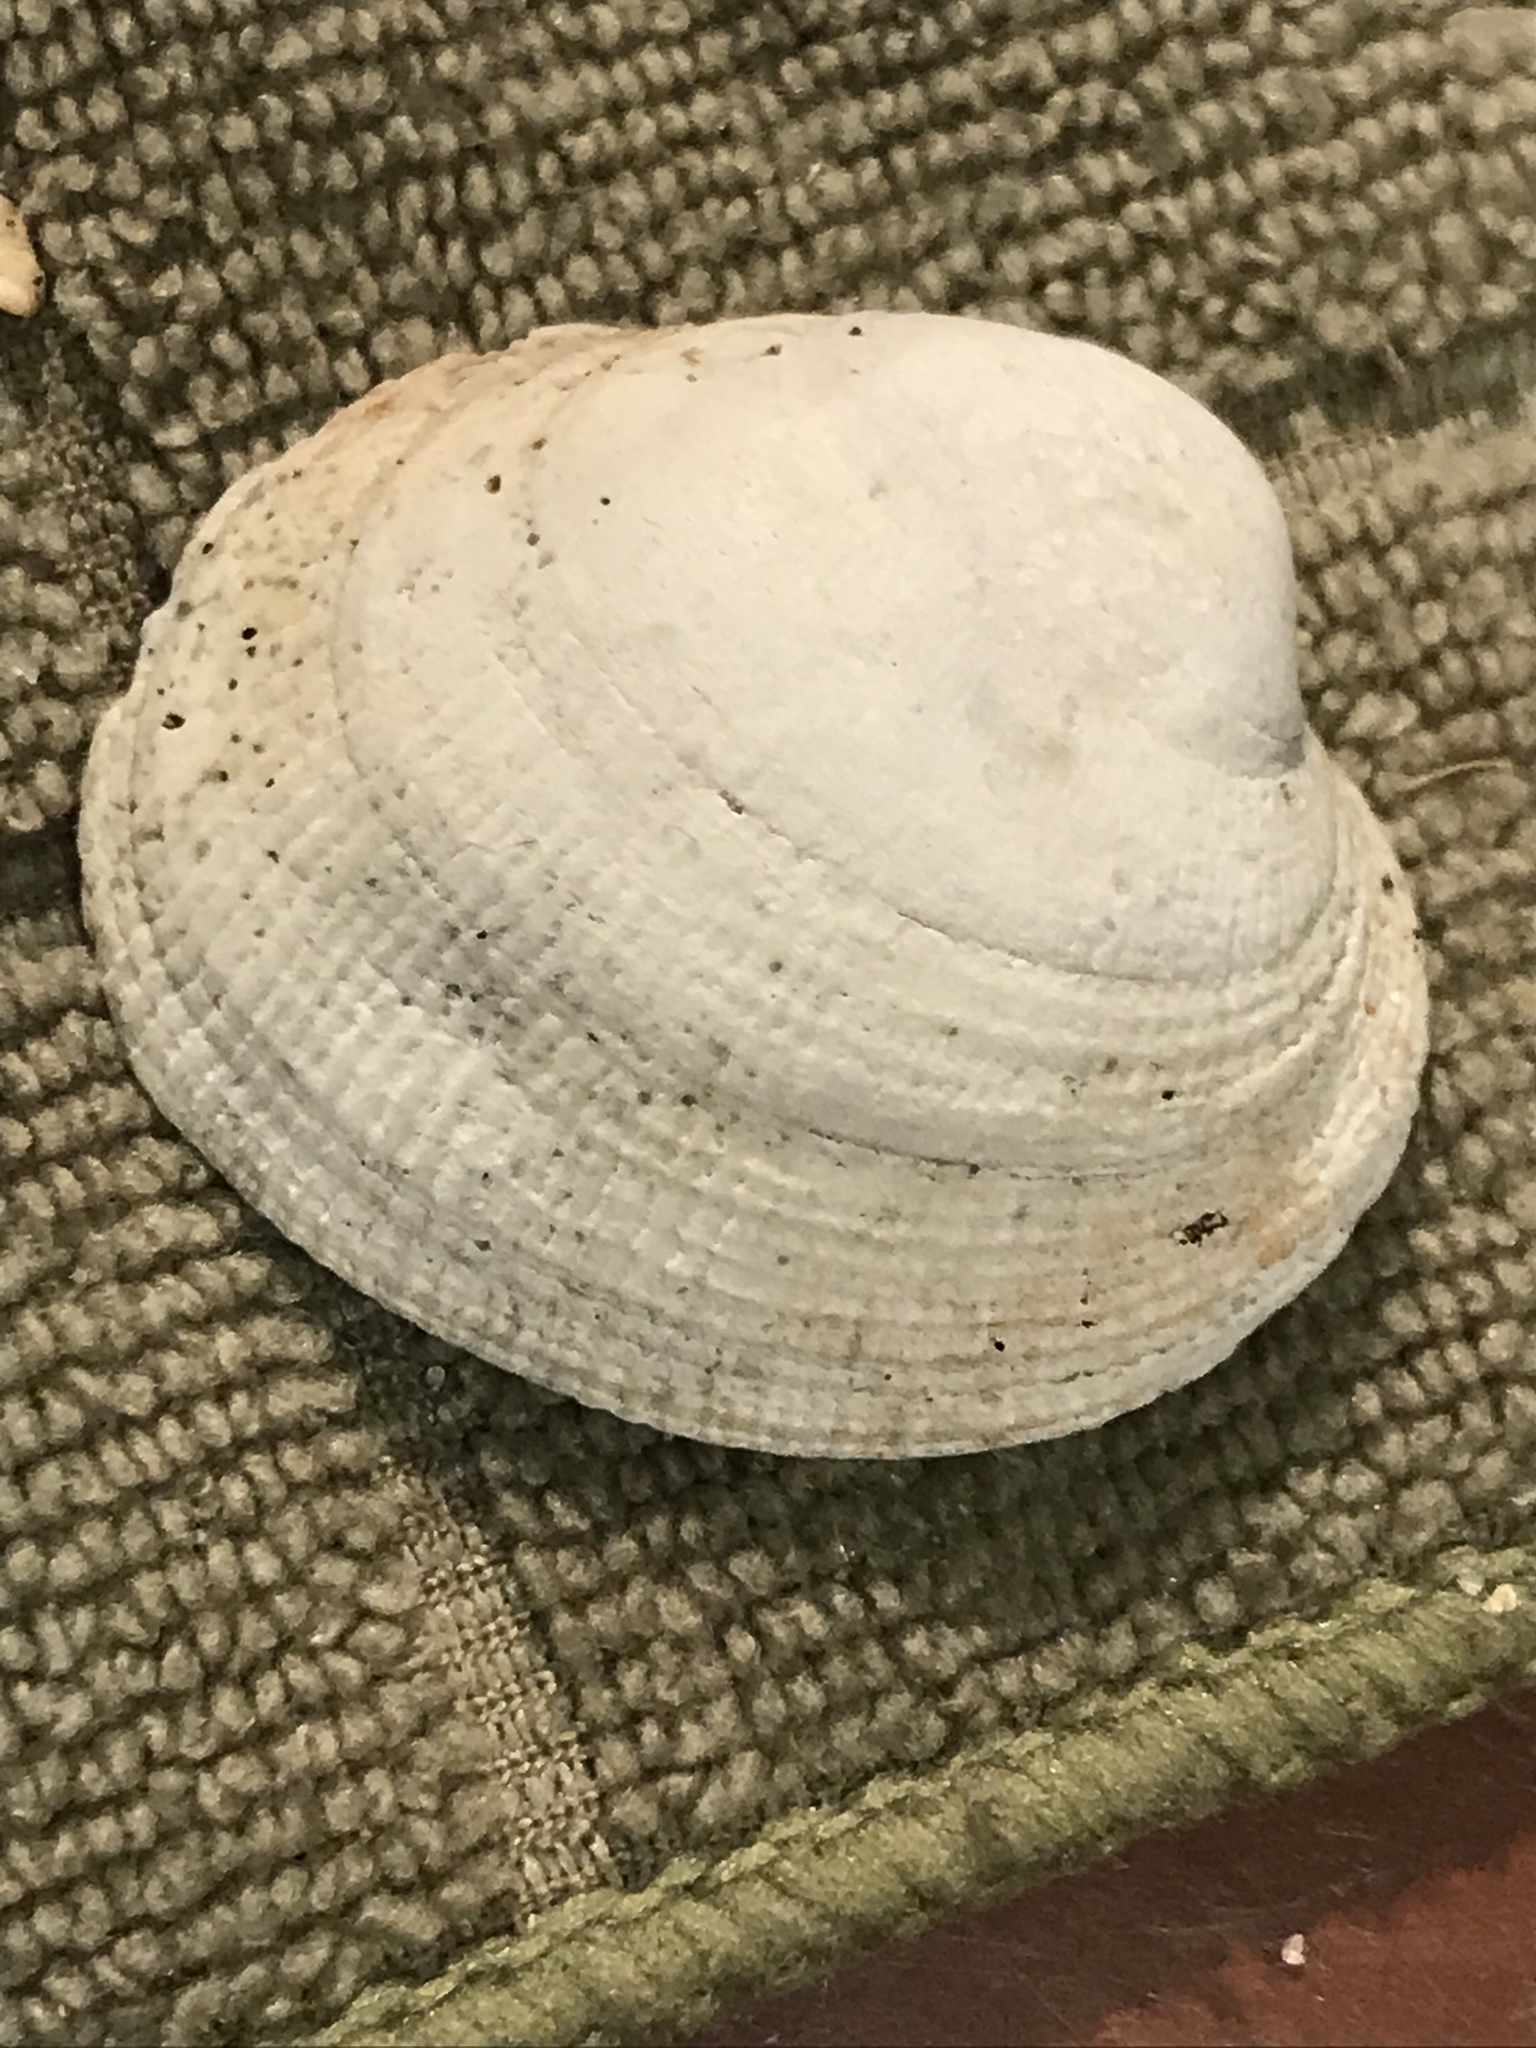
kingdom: Animalia
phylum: Mollusca
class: Bivalvia
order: Venerida
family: Veneridae
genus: Leukoma
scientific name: Leukoma staminea
